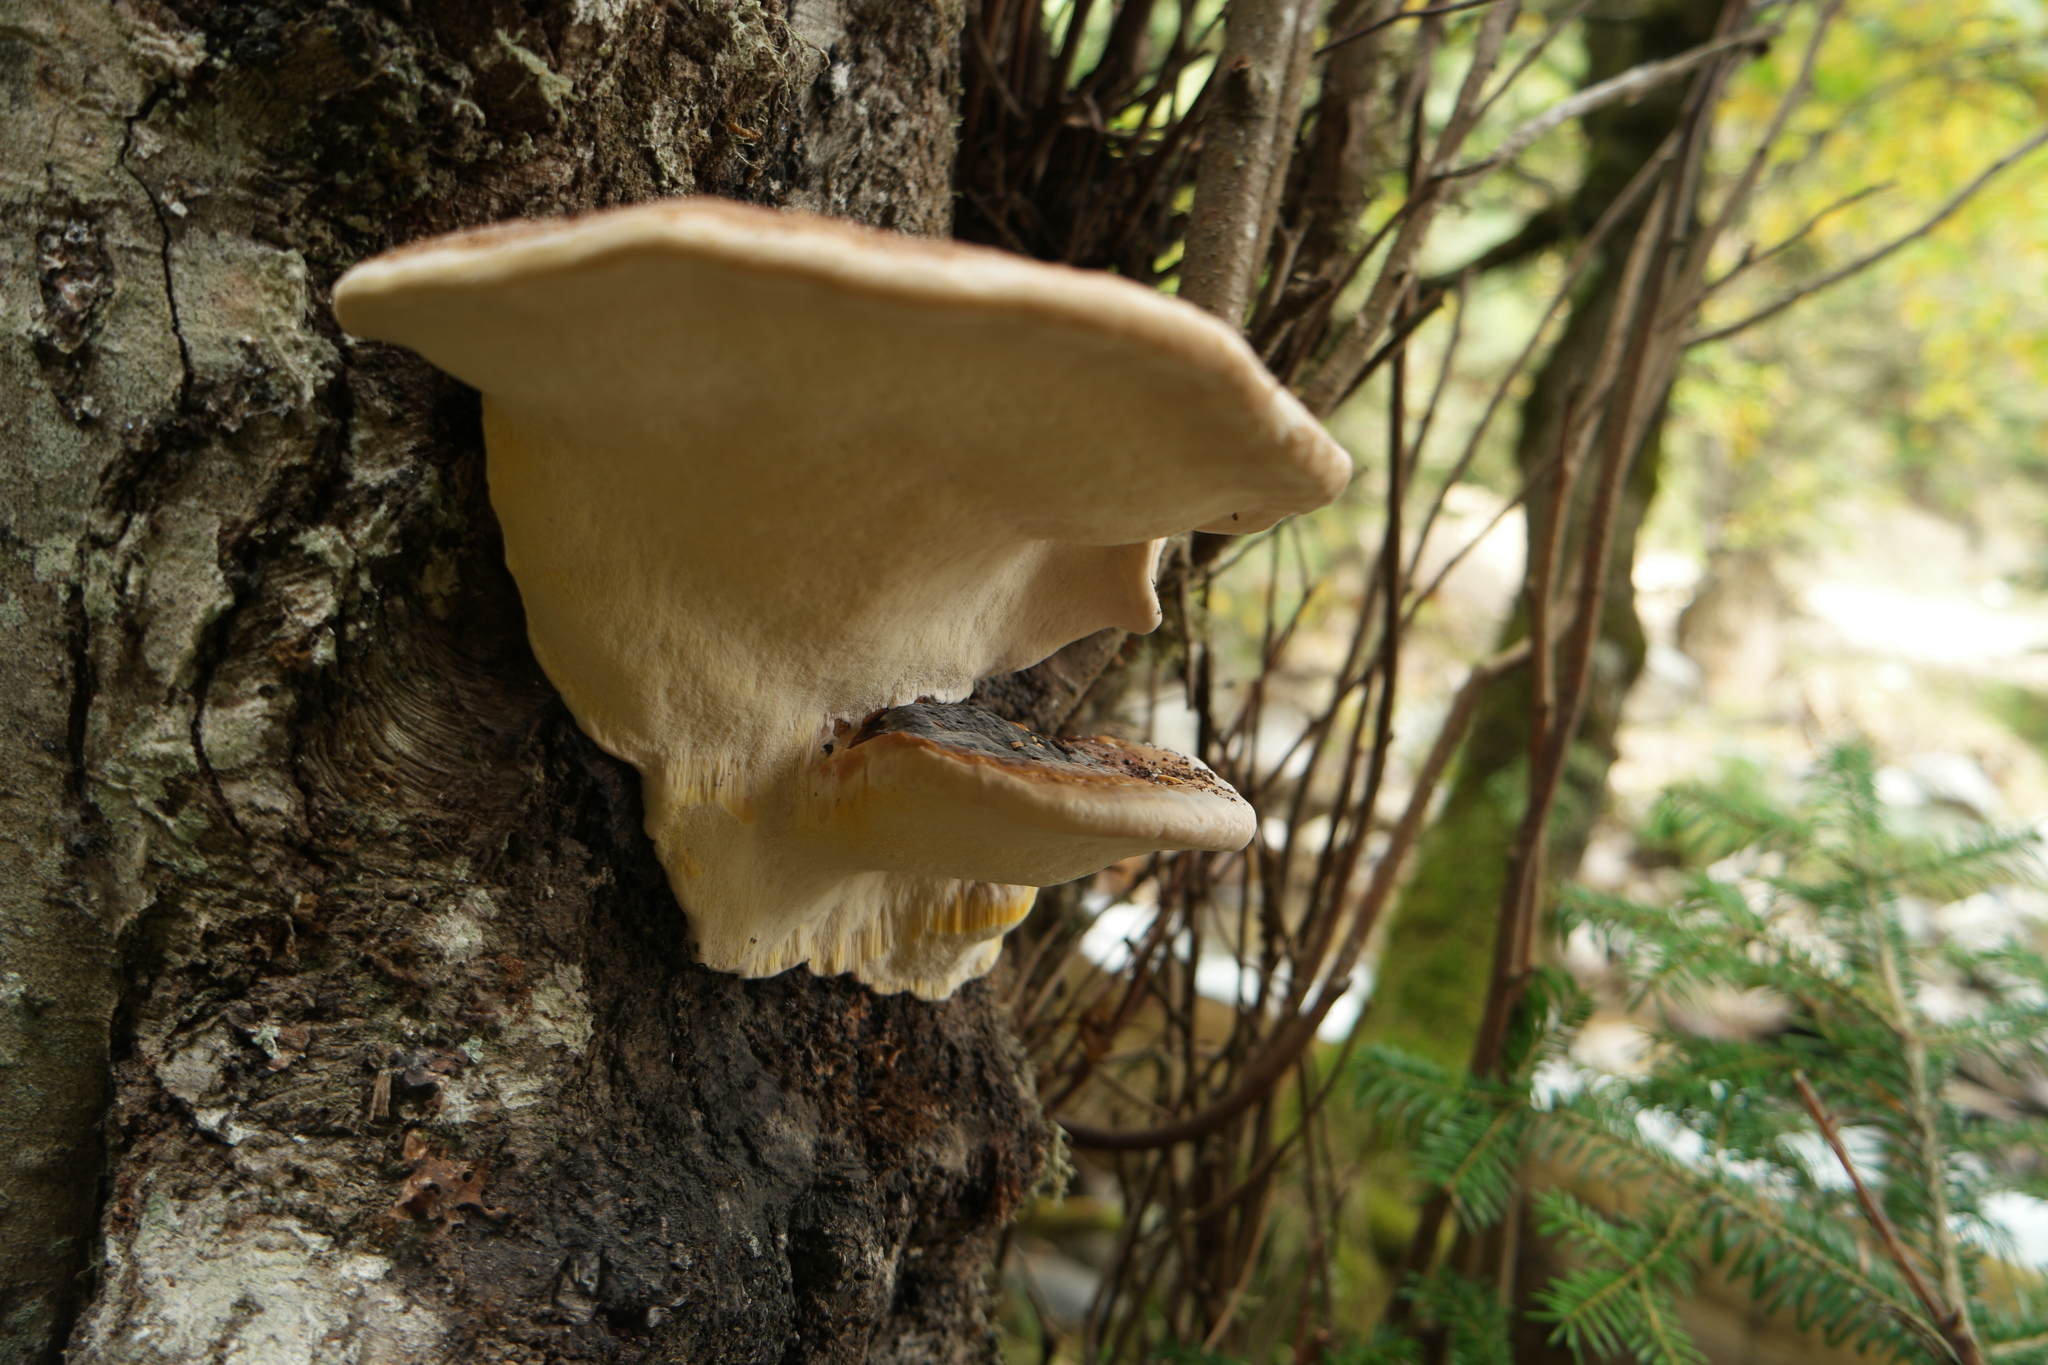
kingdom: Fungi
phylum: Basidiomycota
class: Agaricomycetes
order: Polyporales
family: Fomitopsidaceae
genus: Fomitopsis
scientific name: Fomitopsis pinicola
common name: Red-belted bracket
